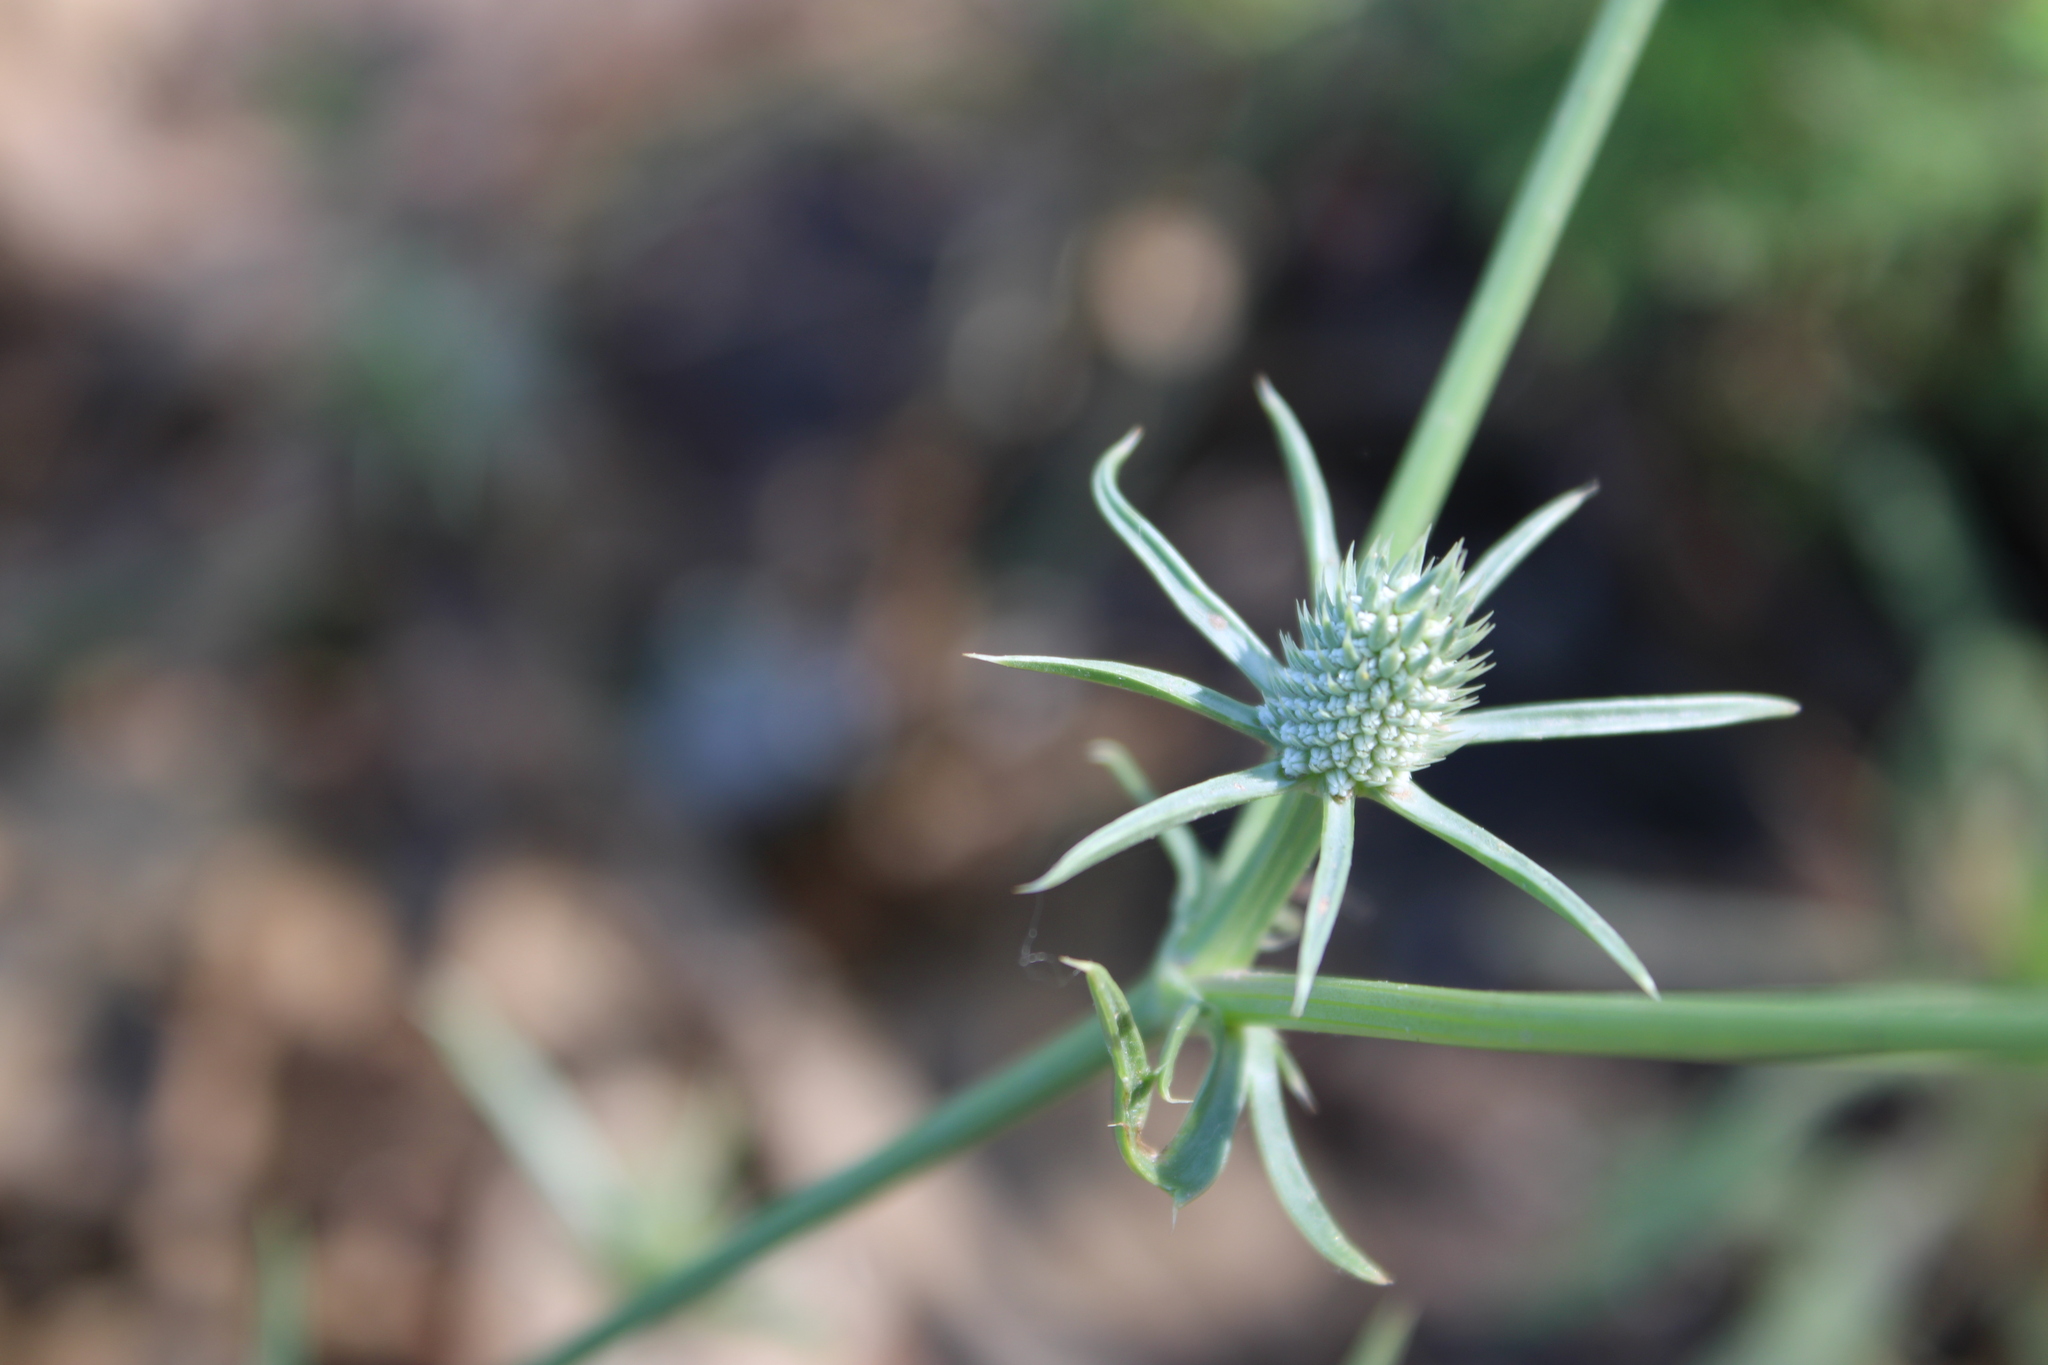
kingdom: Plantae
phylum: Tracheophyta
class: Magnoliopsida
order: Apiales
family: Apiaceae
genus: Eryngium
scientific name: Eryngium echinatum
